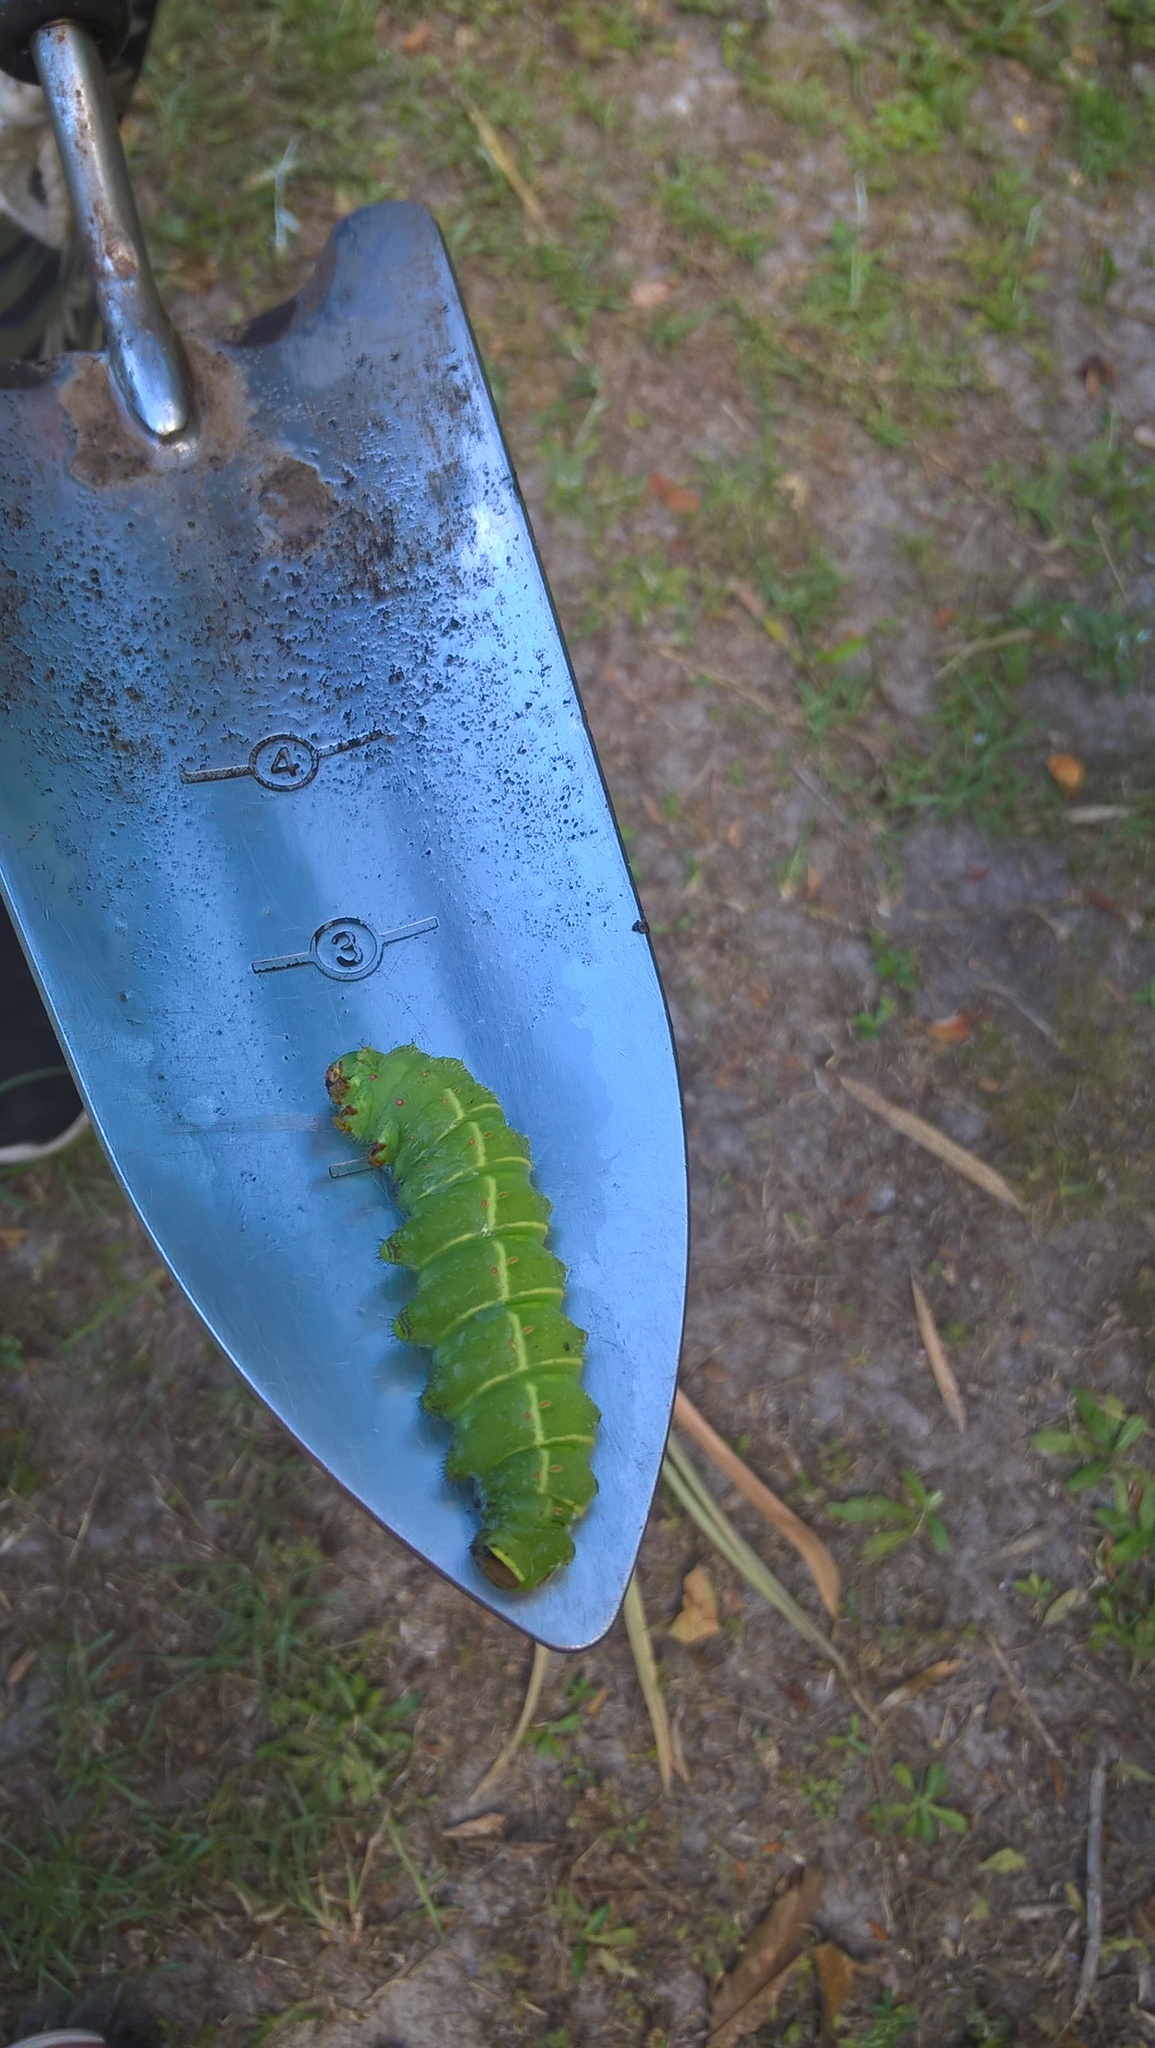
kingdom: Animalia
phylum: Arthropoda
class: Insecta
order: Lepidoptera
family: Saturniidae
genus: Actias
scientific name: Actias luna
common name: Luna moth
